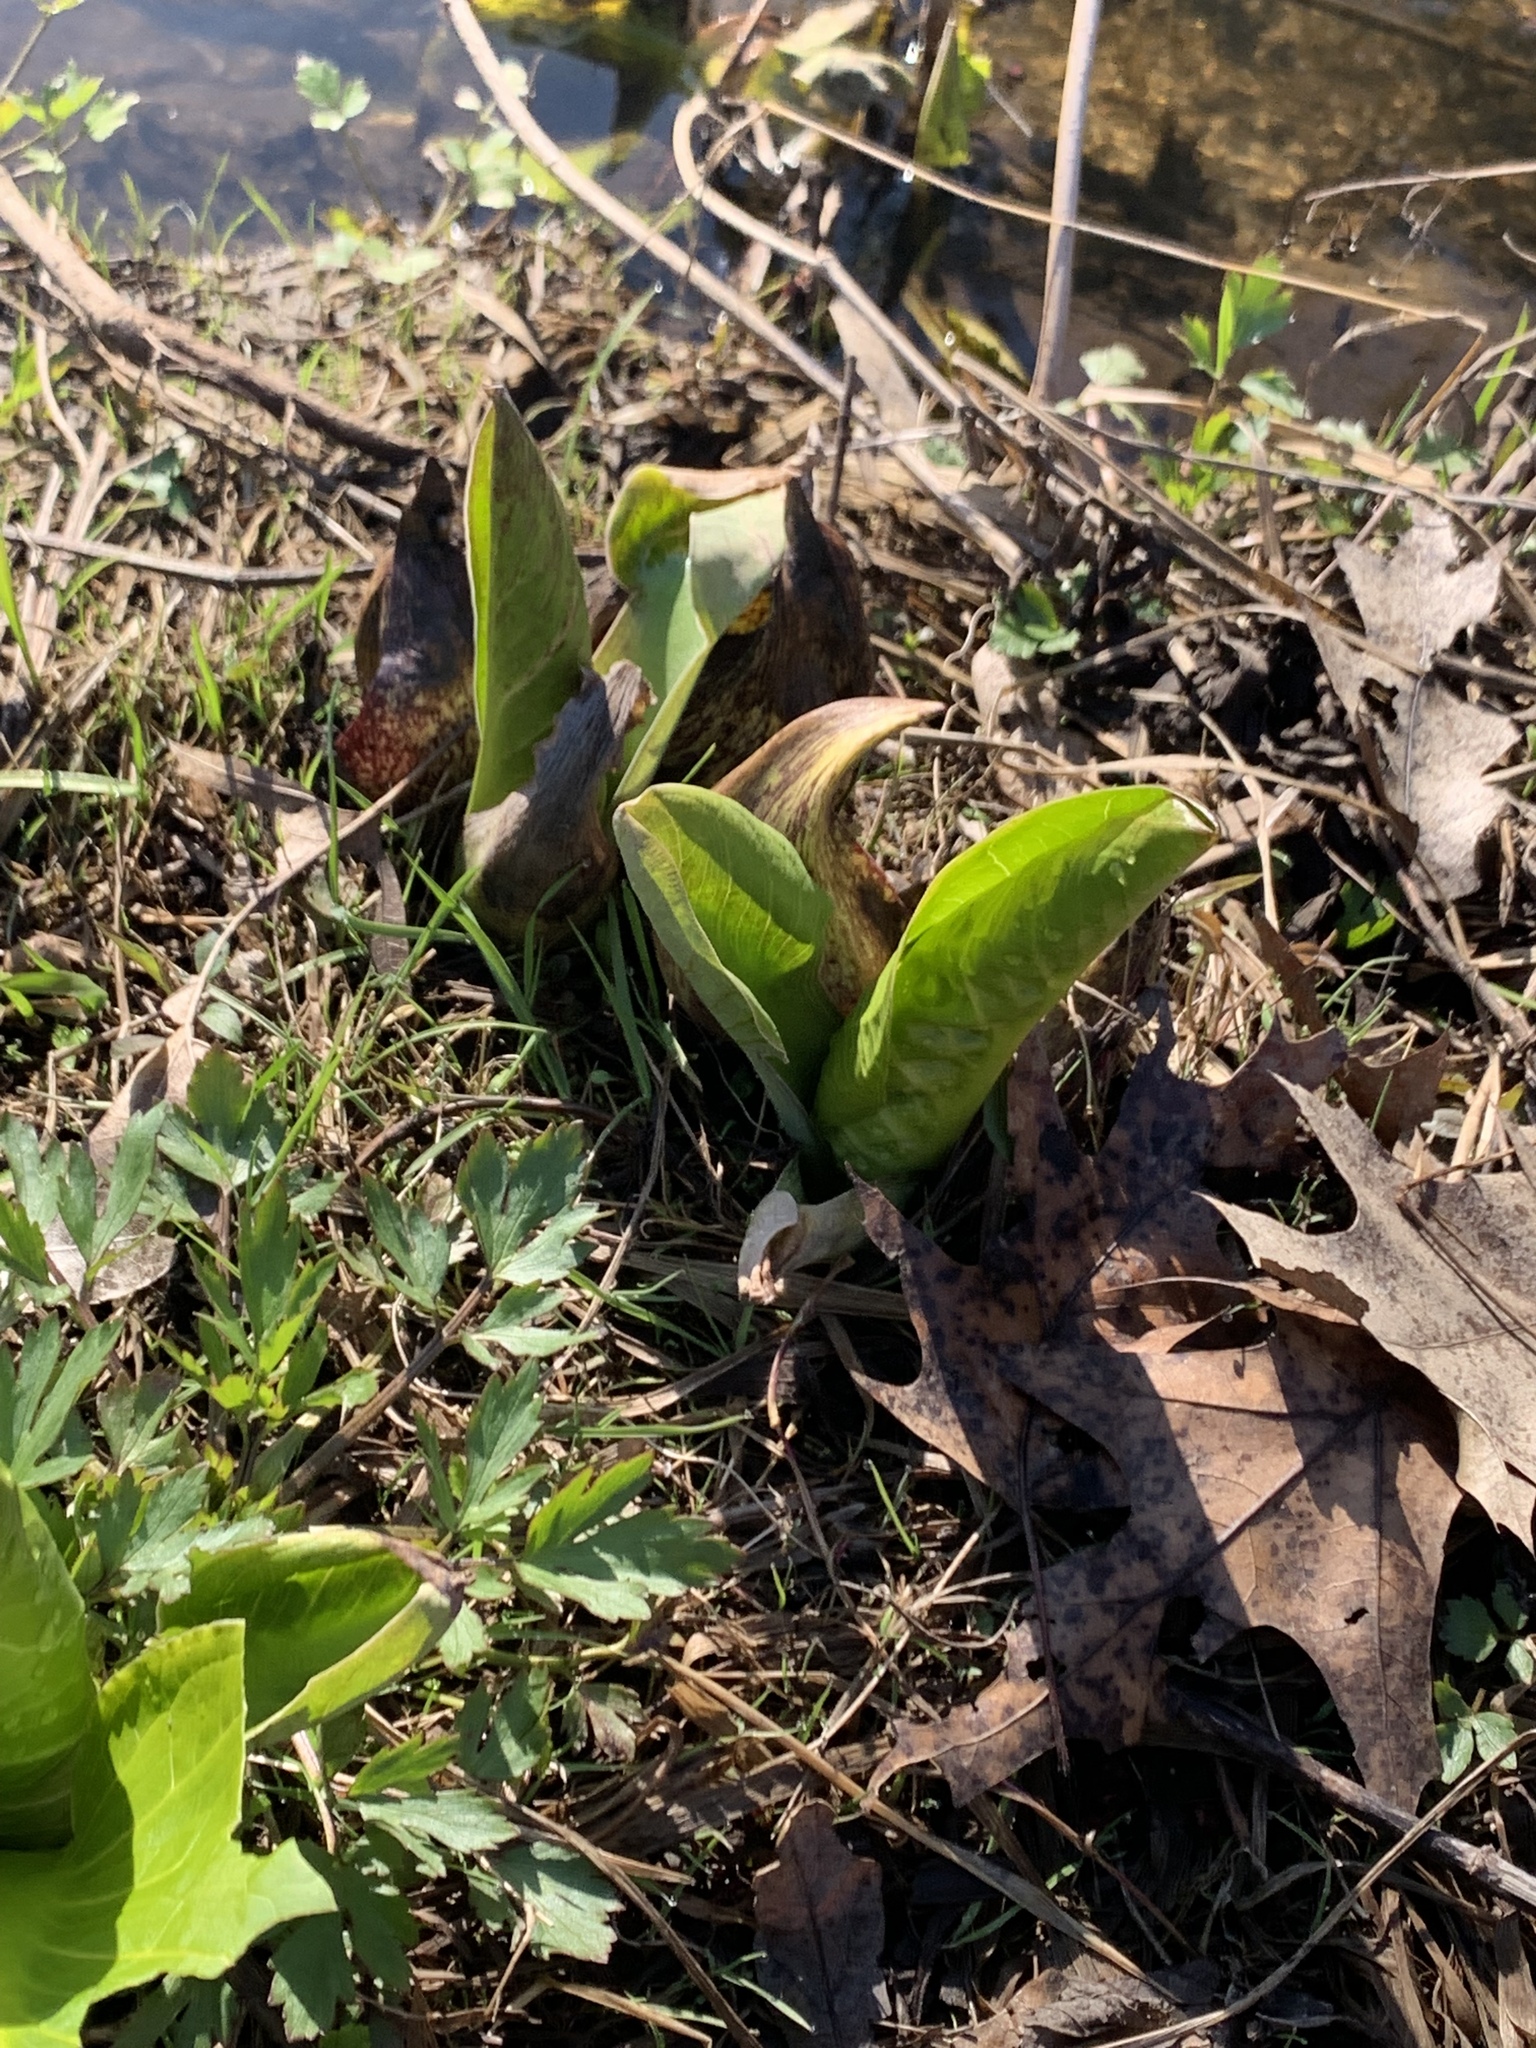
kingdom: Plantae
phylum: Tracheophyta
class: Liliopsida
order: Alismatales
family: Araceae
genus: Symplocarpus
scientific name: Symplocarpus foetidus
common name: Eastern skunk cabbage
